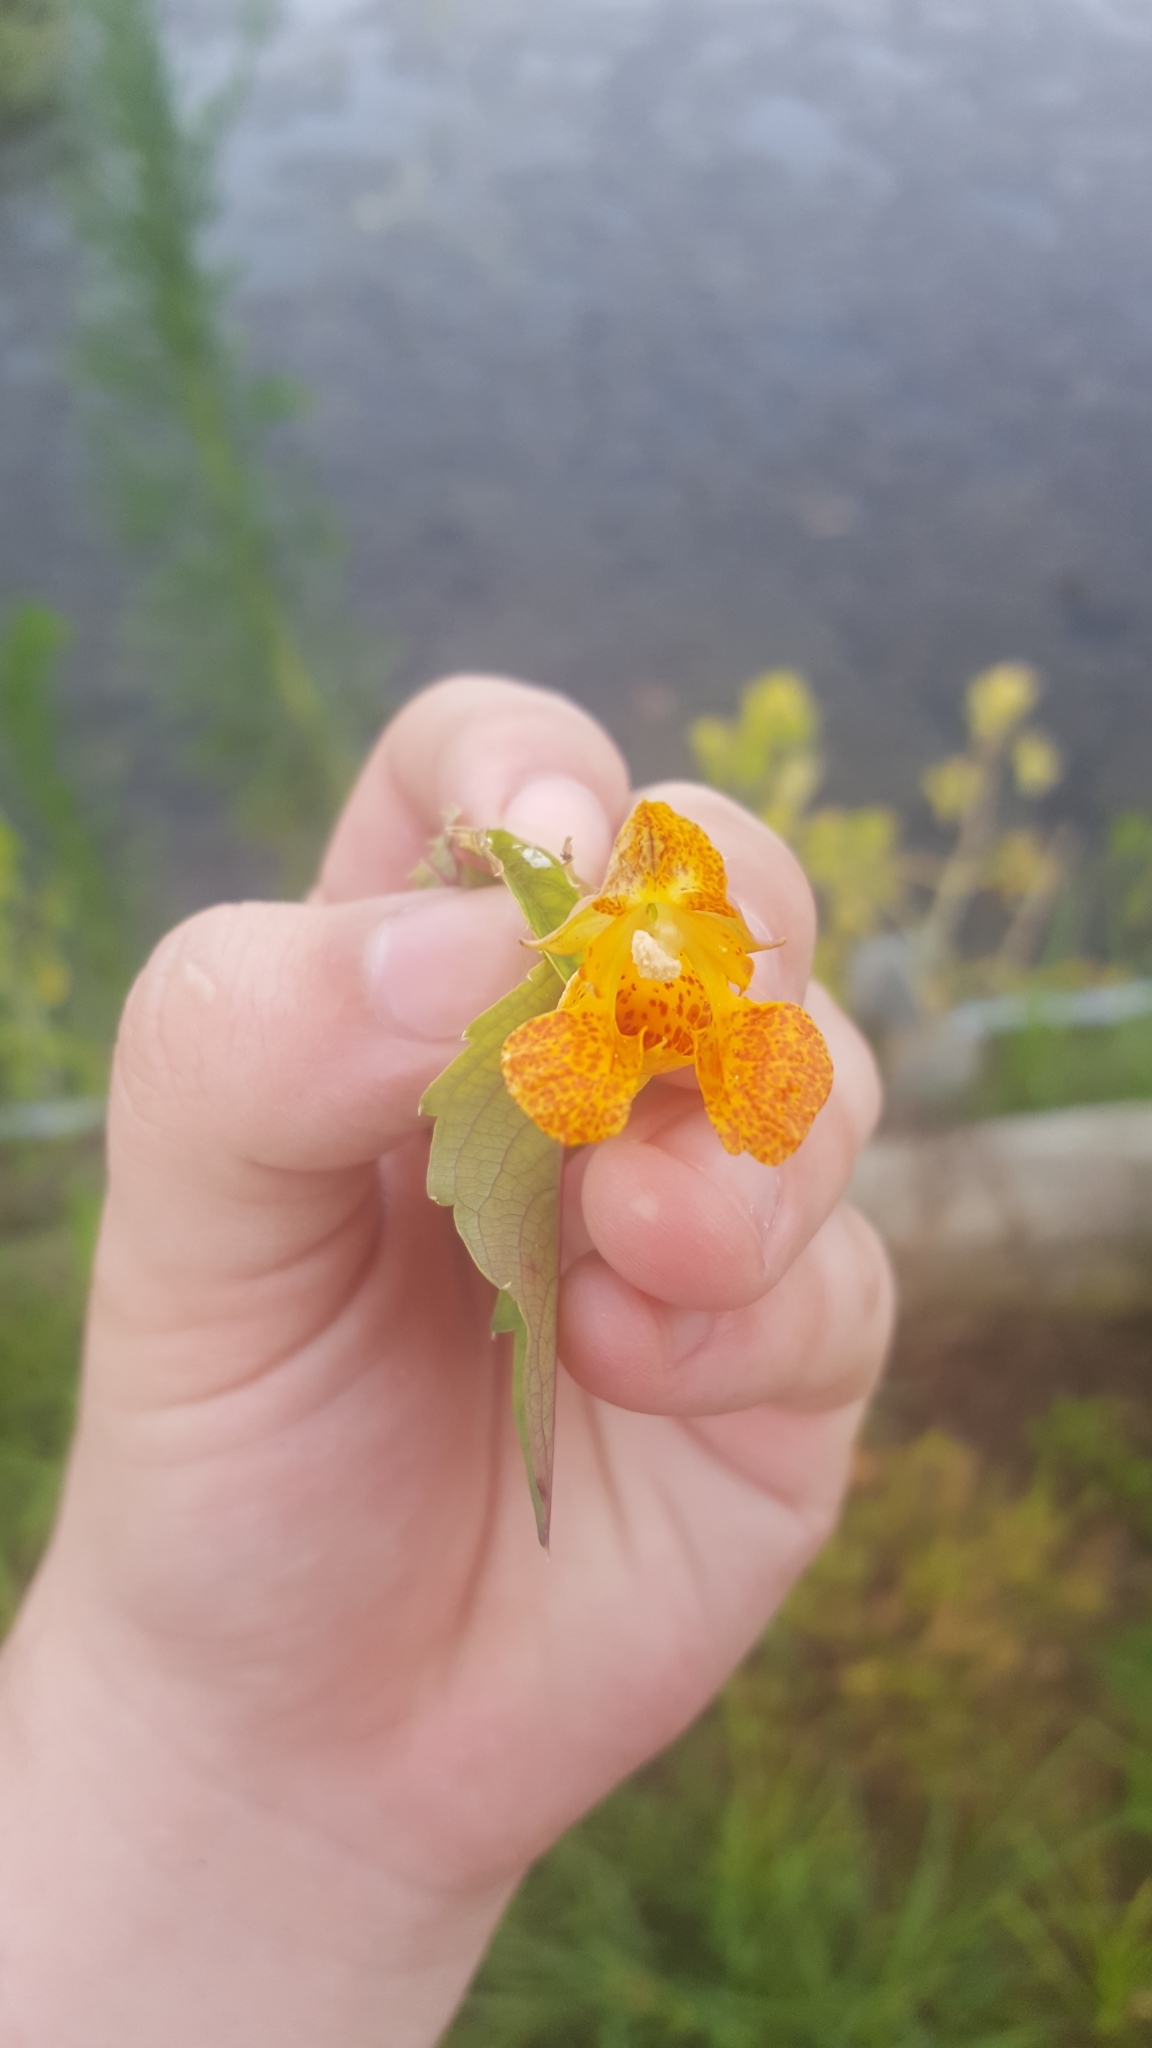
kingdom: Plantae
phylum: Tracheophyta
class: Magnoliopsida
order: Ericales
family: Balsaminaceae
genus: Impatiens
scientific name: Impatiens capensis
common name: Orange balsam
